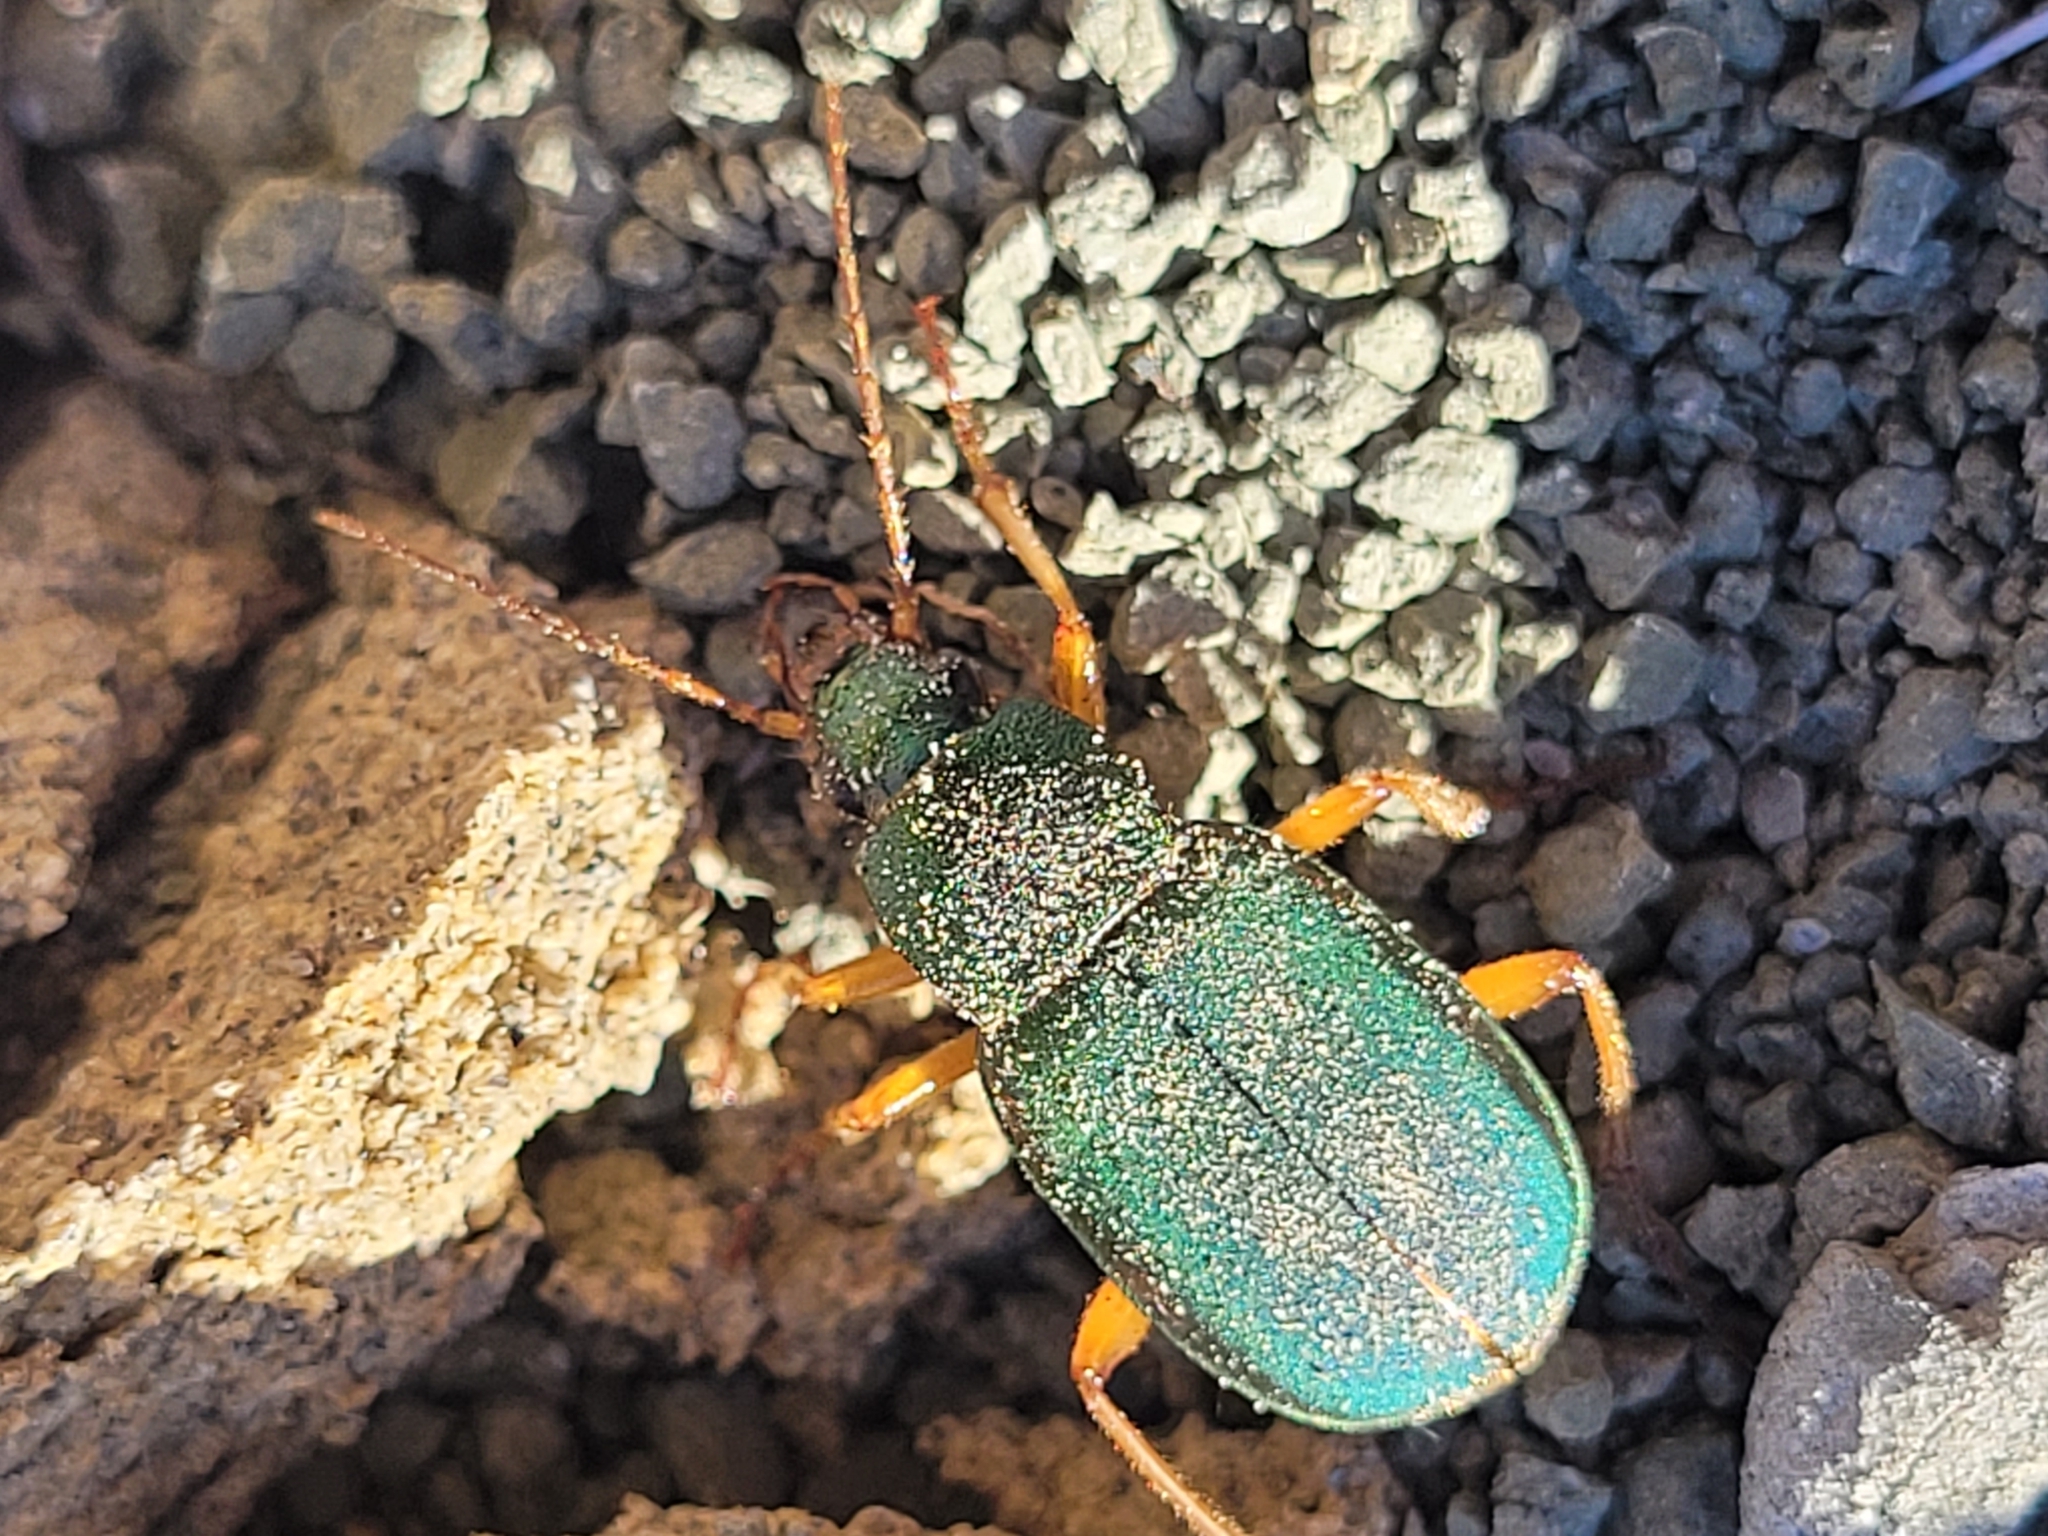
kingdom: Animalia
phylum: Arthropoda
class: Insecta
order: Coleoptera
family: Carabidae
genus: Chlaenius
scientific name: Chlaenius sericeus
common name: Green pubescent ground beetle
